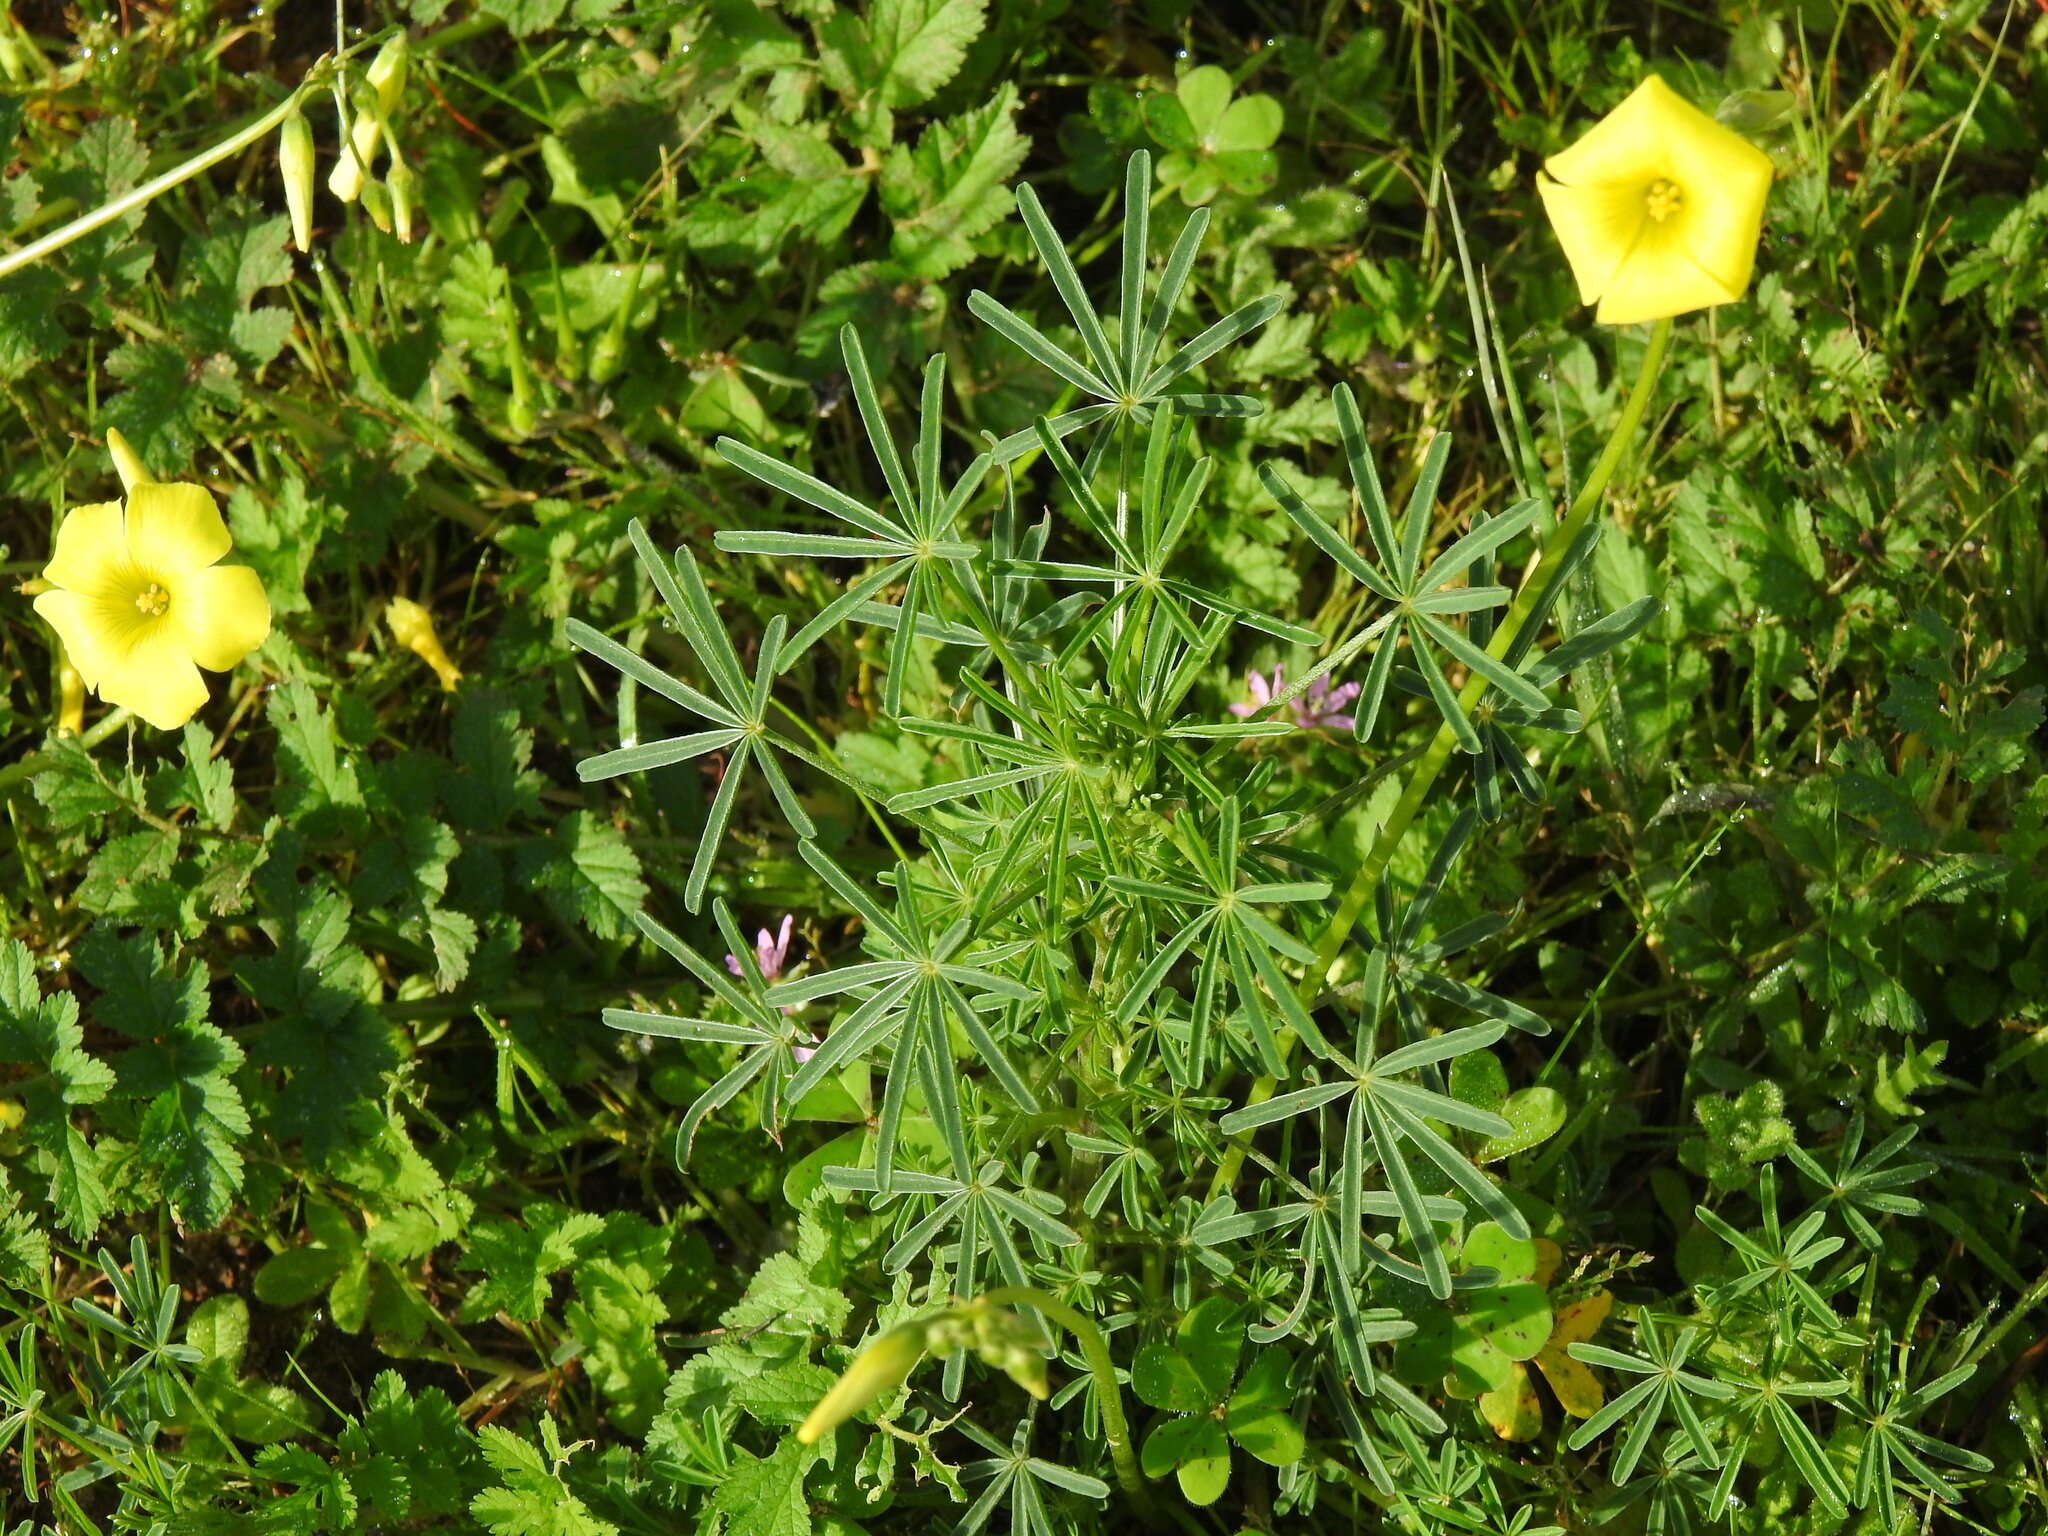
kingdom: Plantae
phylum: Tracheophyta
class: Magnoliopsida
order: Fabales
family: Fabaceae
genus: Lupinus
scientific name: Lupinus angustifolius
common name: Narrow-leaved lupin
